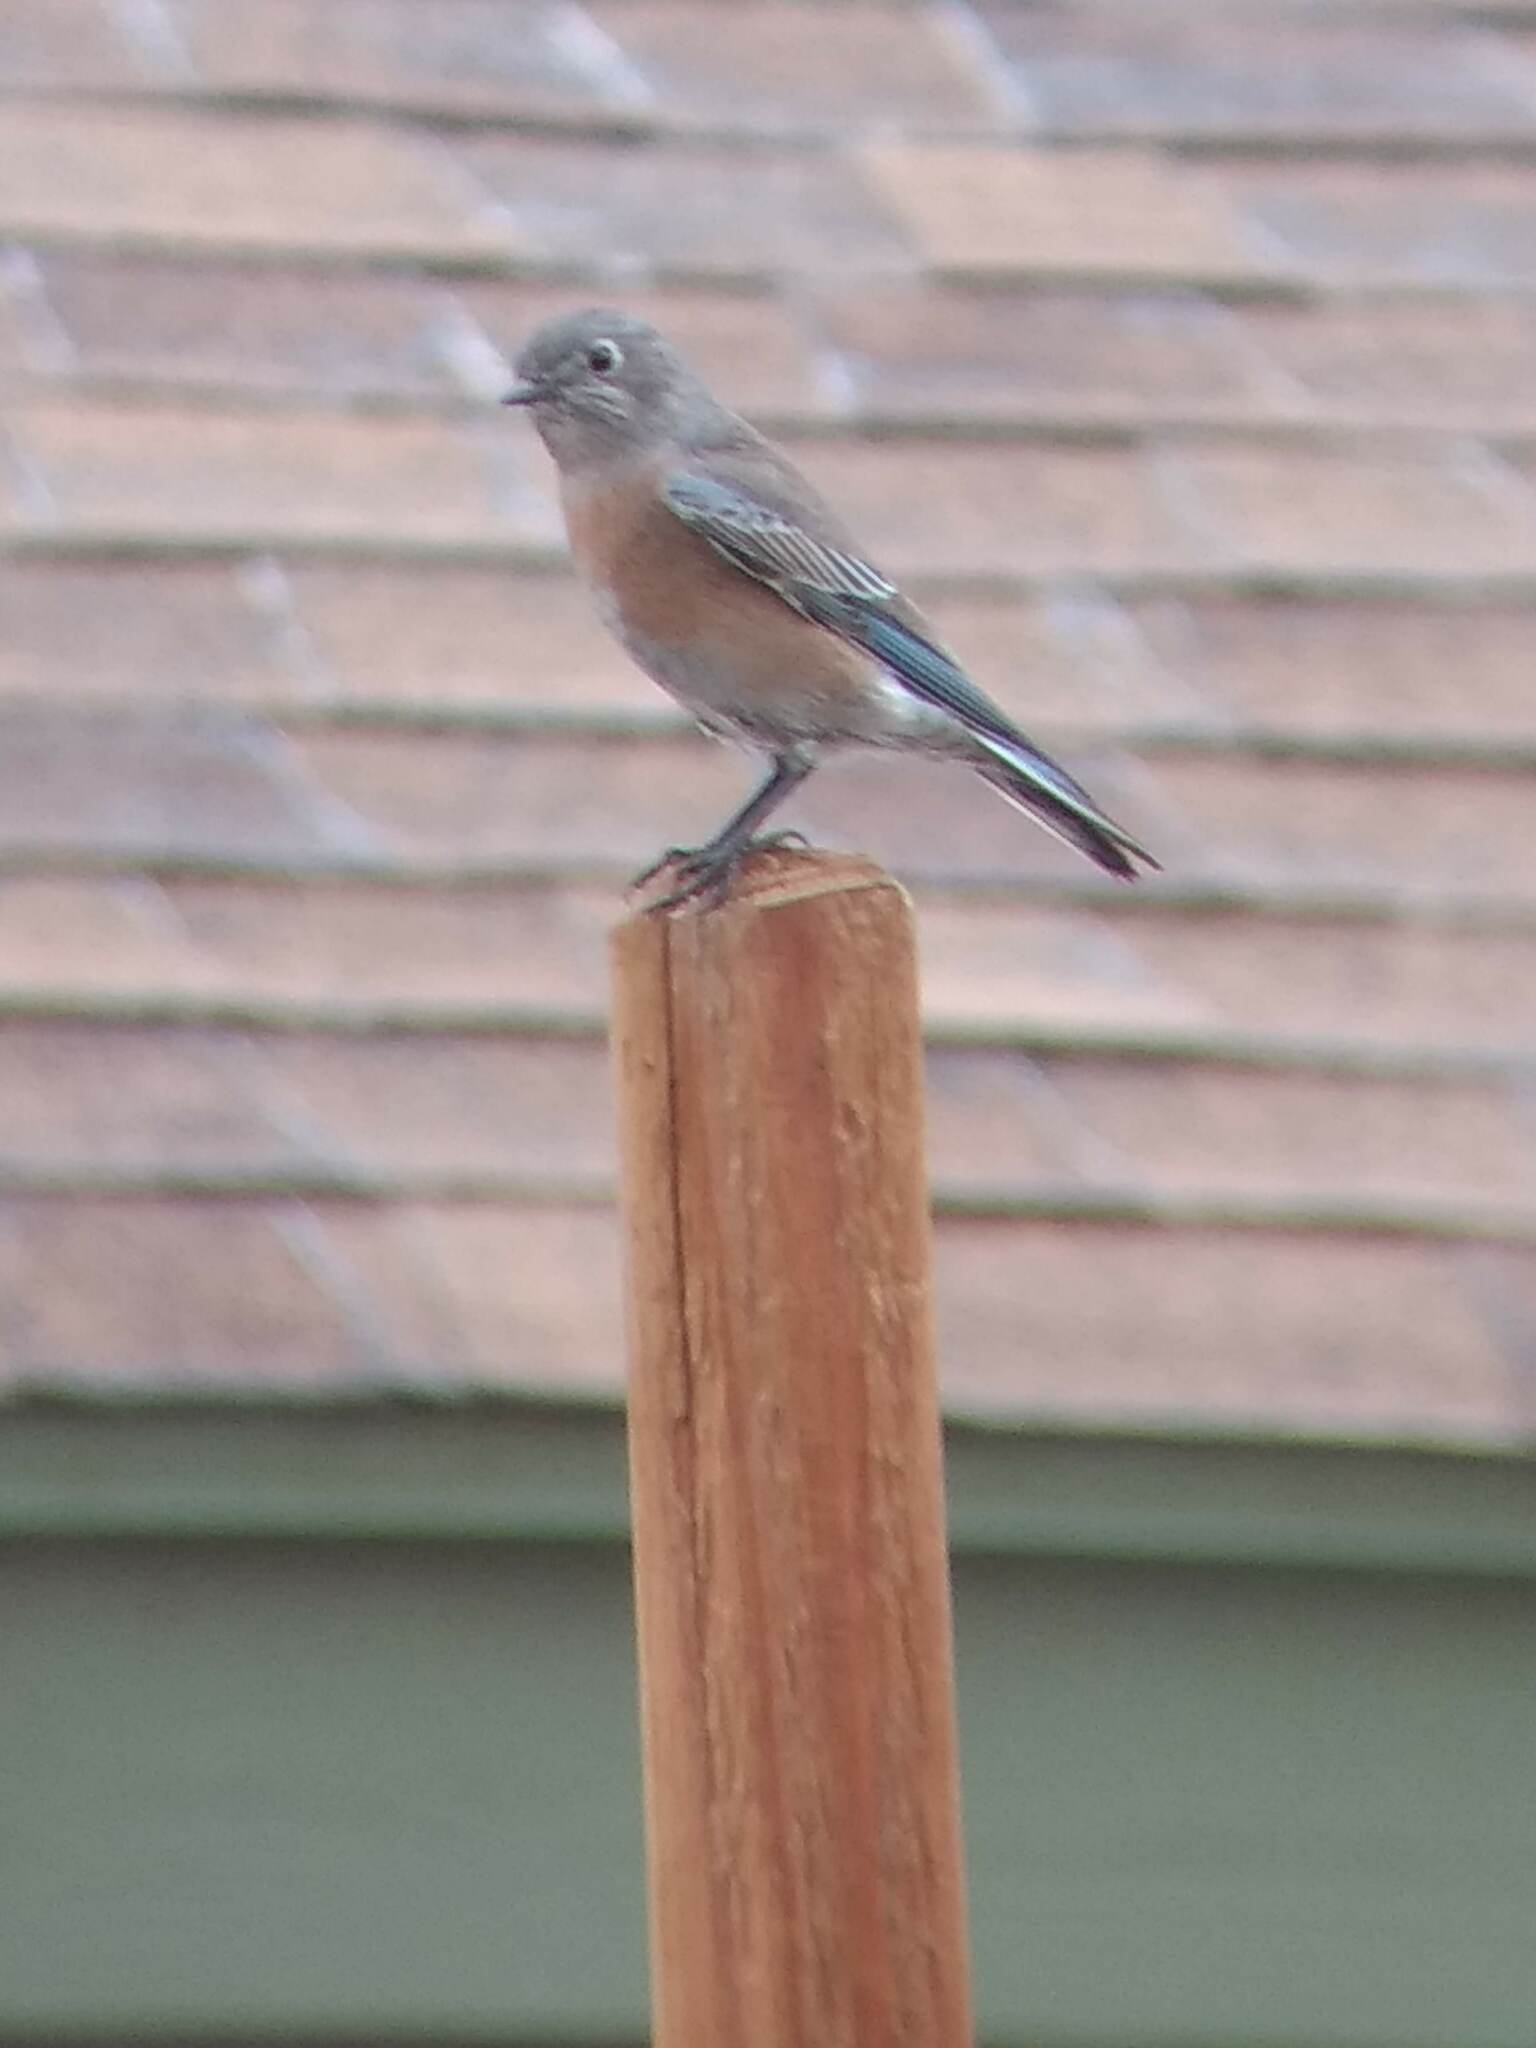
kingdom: Animalia
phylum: Chordata
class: Aves
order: Passeriformes
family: Turdidae
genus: Sialia
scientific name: Sialia mexicana
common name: Western bluebird
